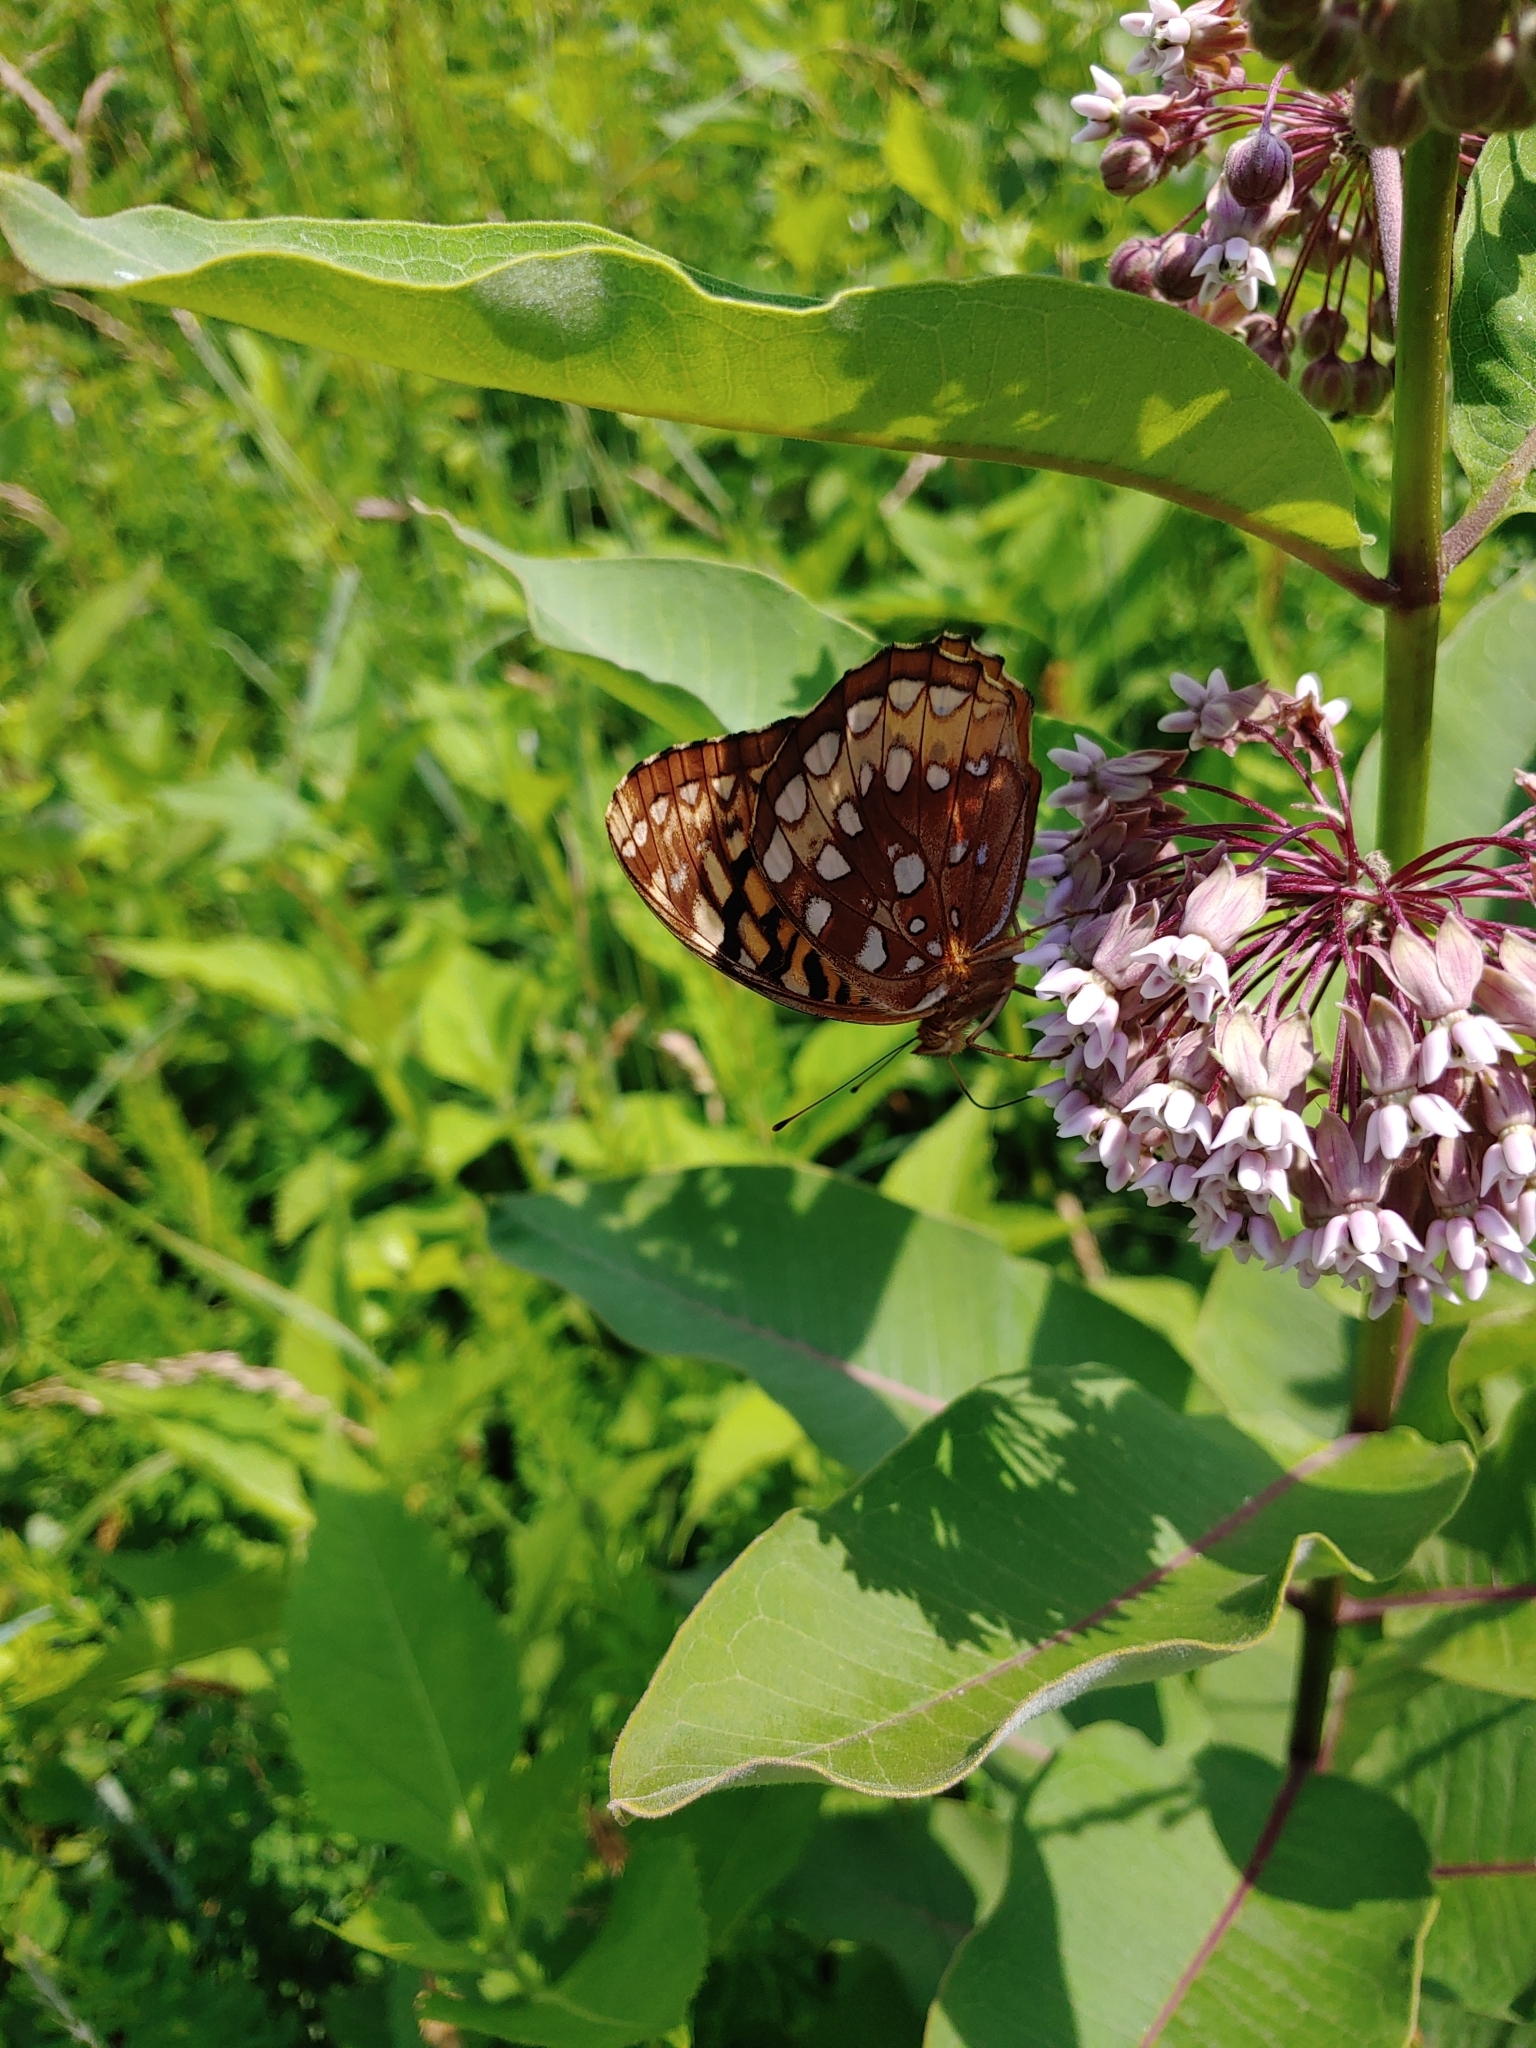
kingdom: Animalia
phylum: Arthropoda
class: Insecta
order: Lepidoptera
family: Nymphalidae
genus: Speyeria
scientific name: Speyeria cybele
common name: Great spangled fritillary
